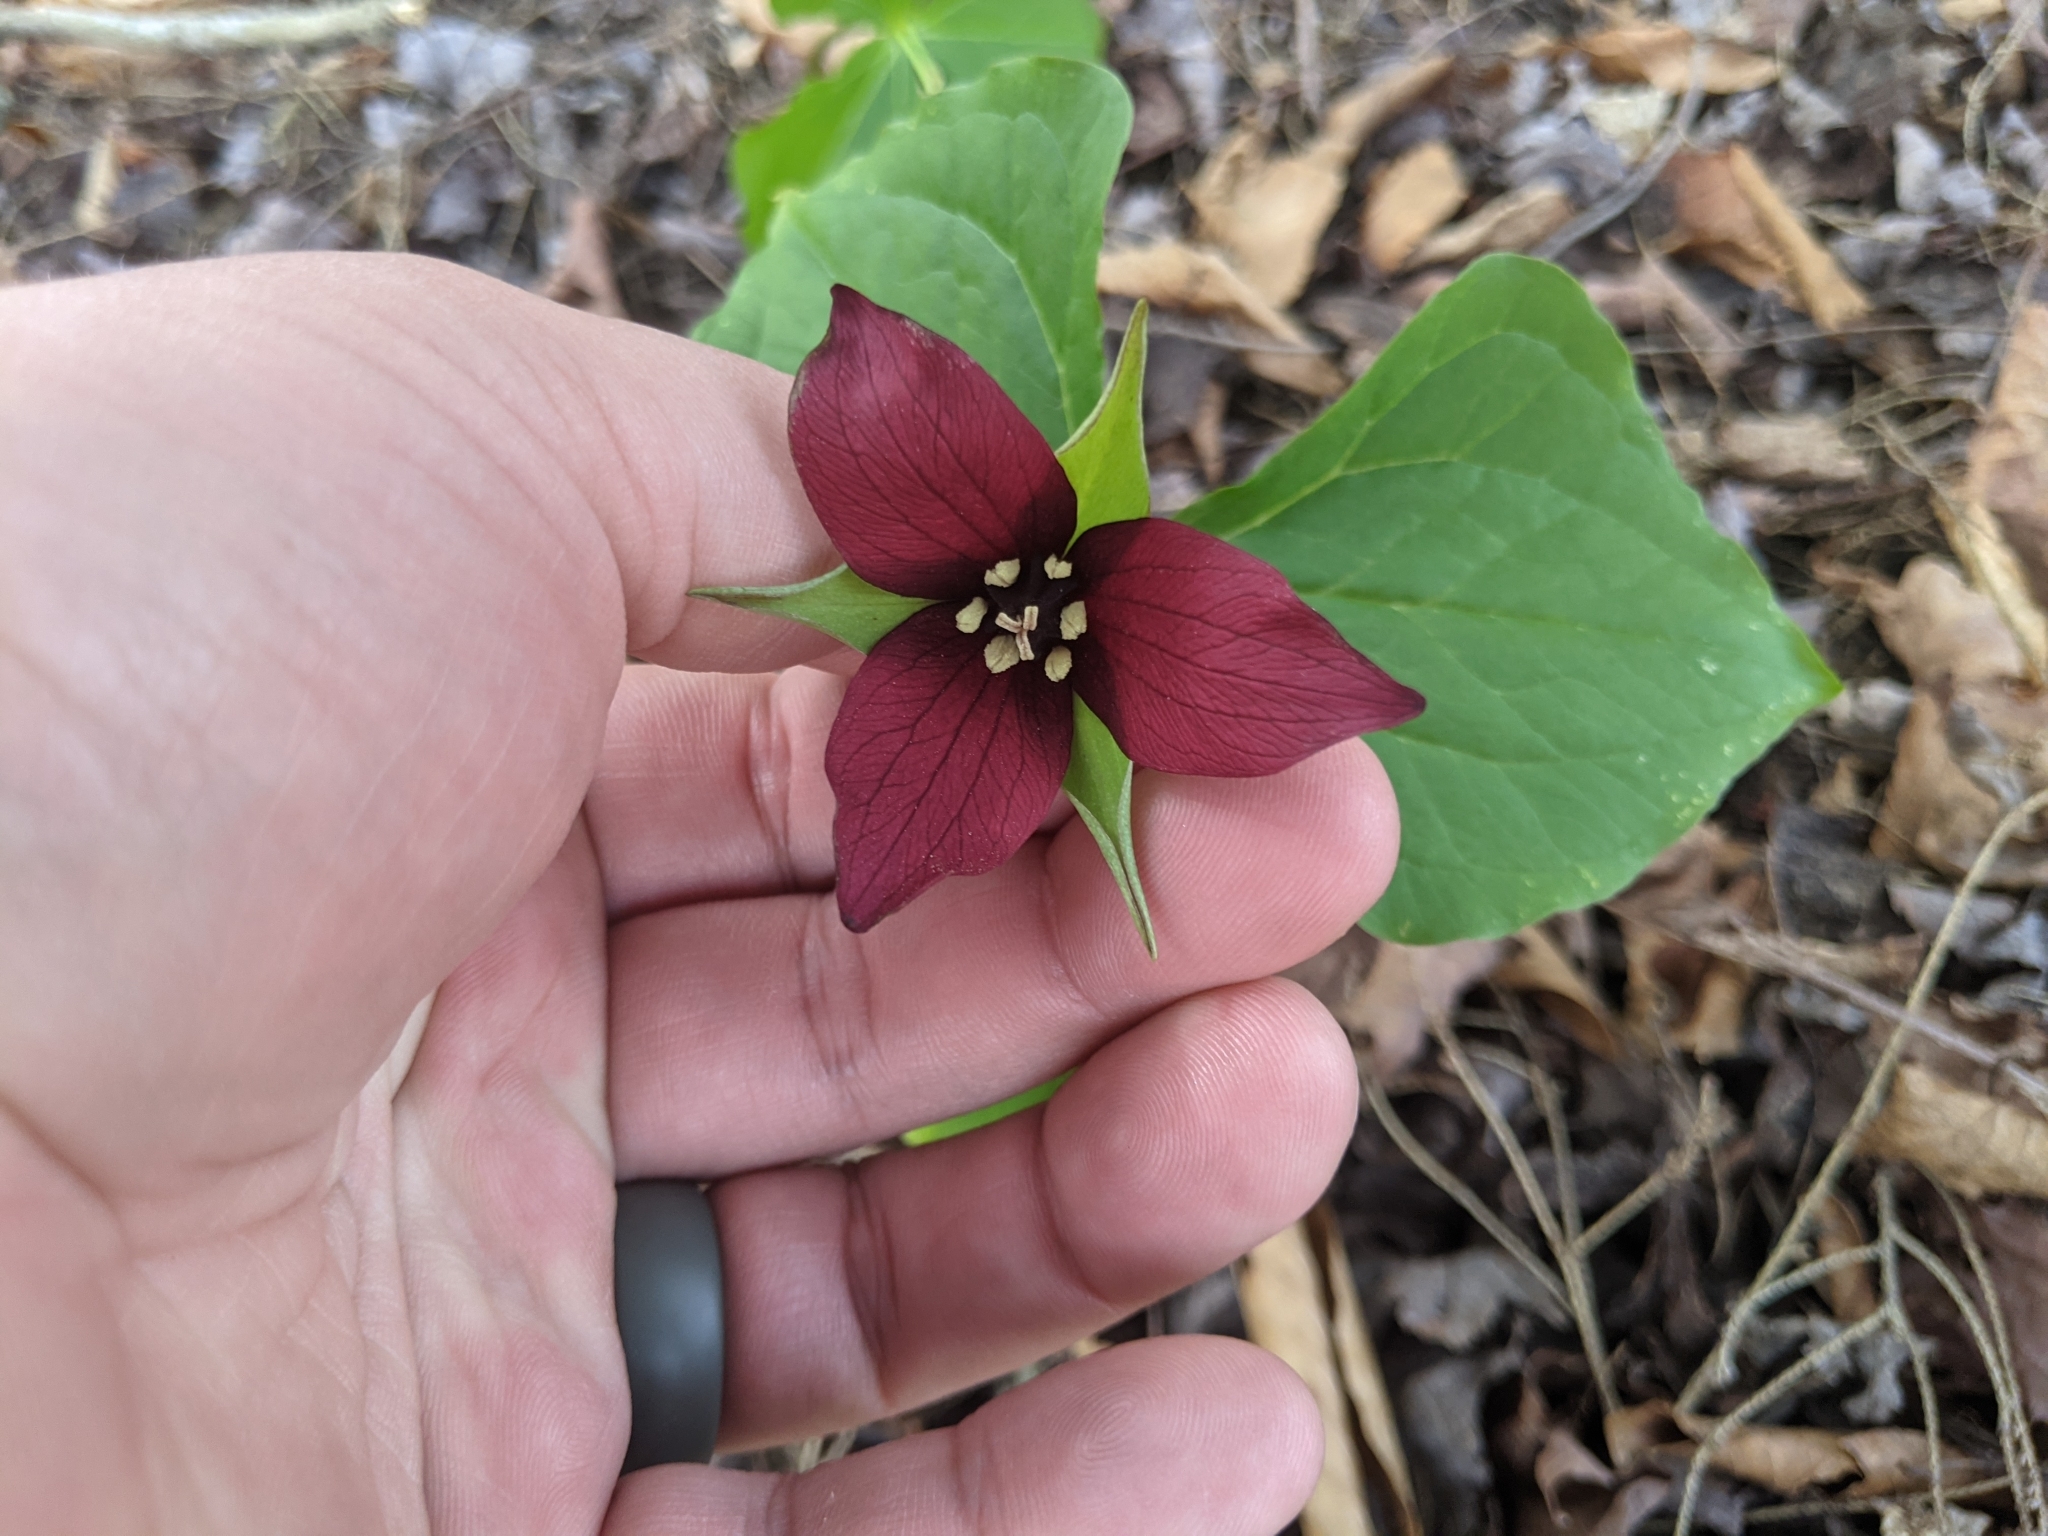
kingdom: Plantae
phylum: Tracheophyta
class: Liliopsida
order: Liliales
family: Melanthiaceae
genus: Trillium
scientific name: Trillium erectum
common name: Purple trillium
